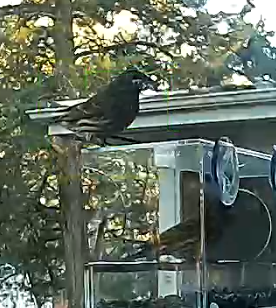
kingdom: Animalia
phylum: Chordata
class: Aves
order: Passeriformes
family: Fringillidae
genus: Haemorhous
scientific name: Haemorhous mexicanus
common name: House finch
